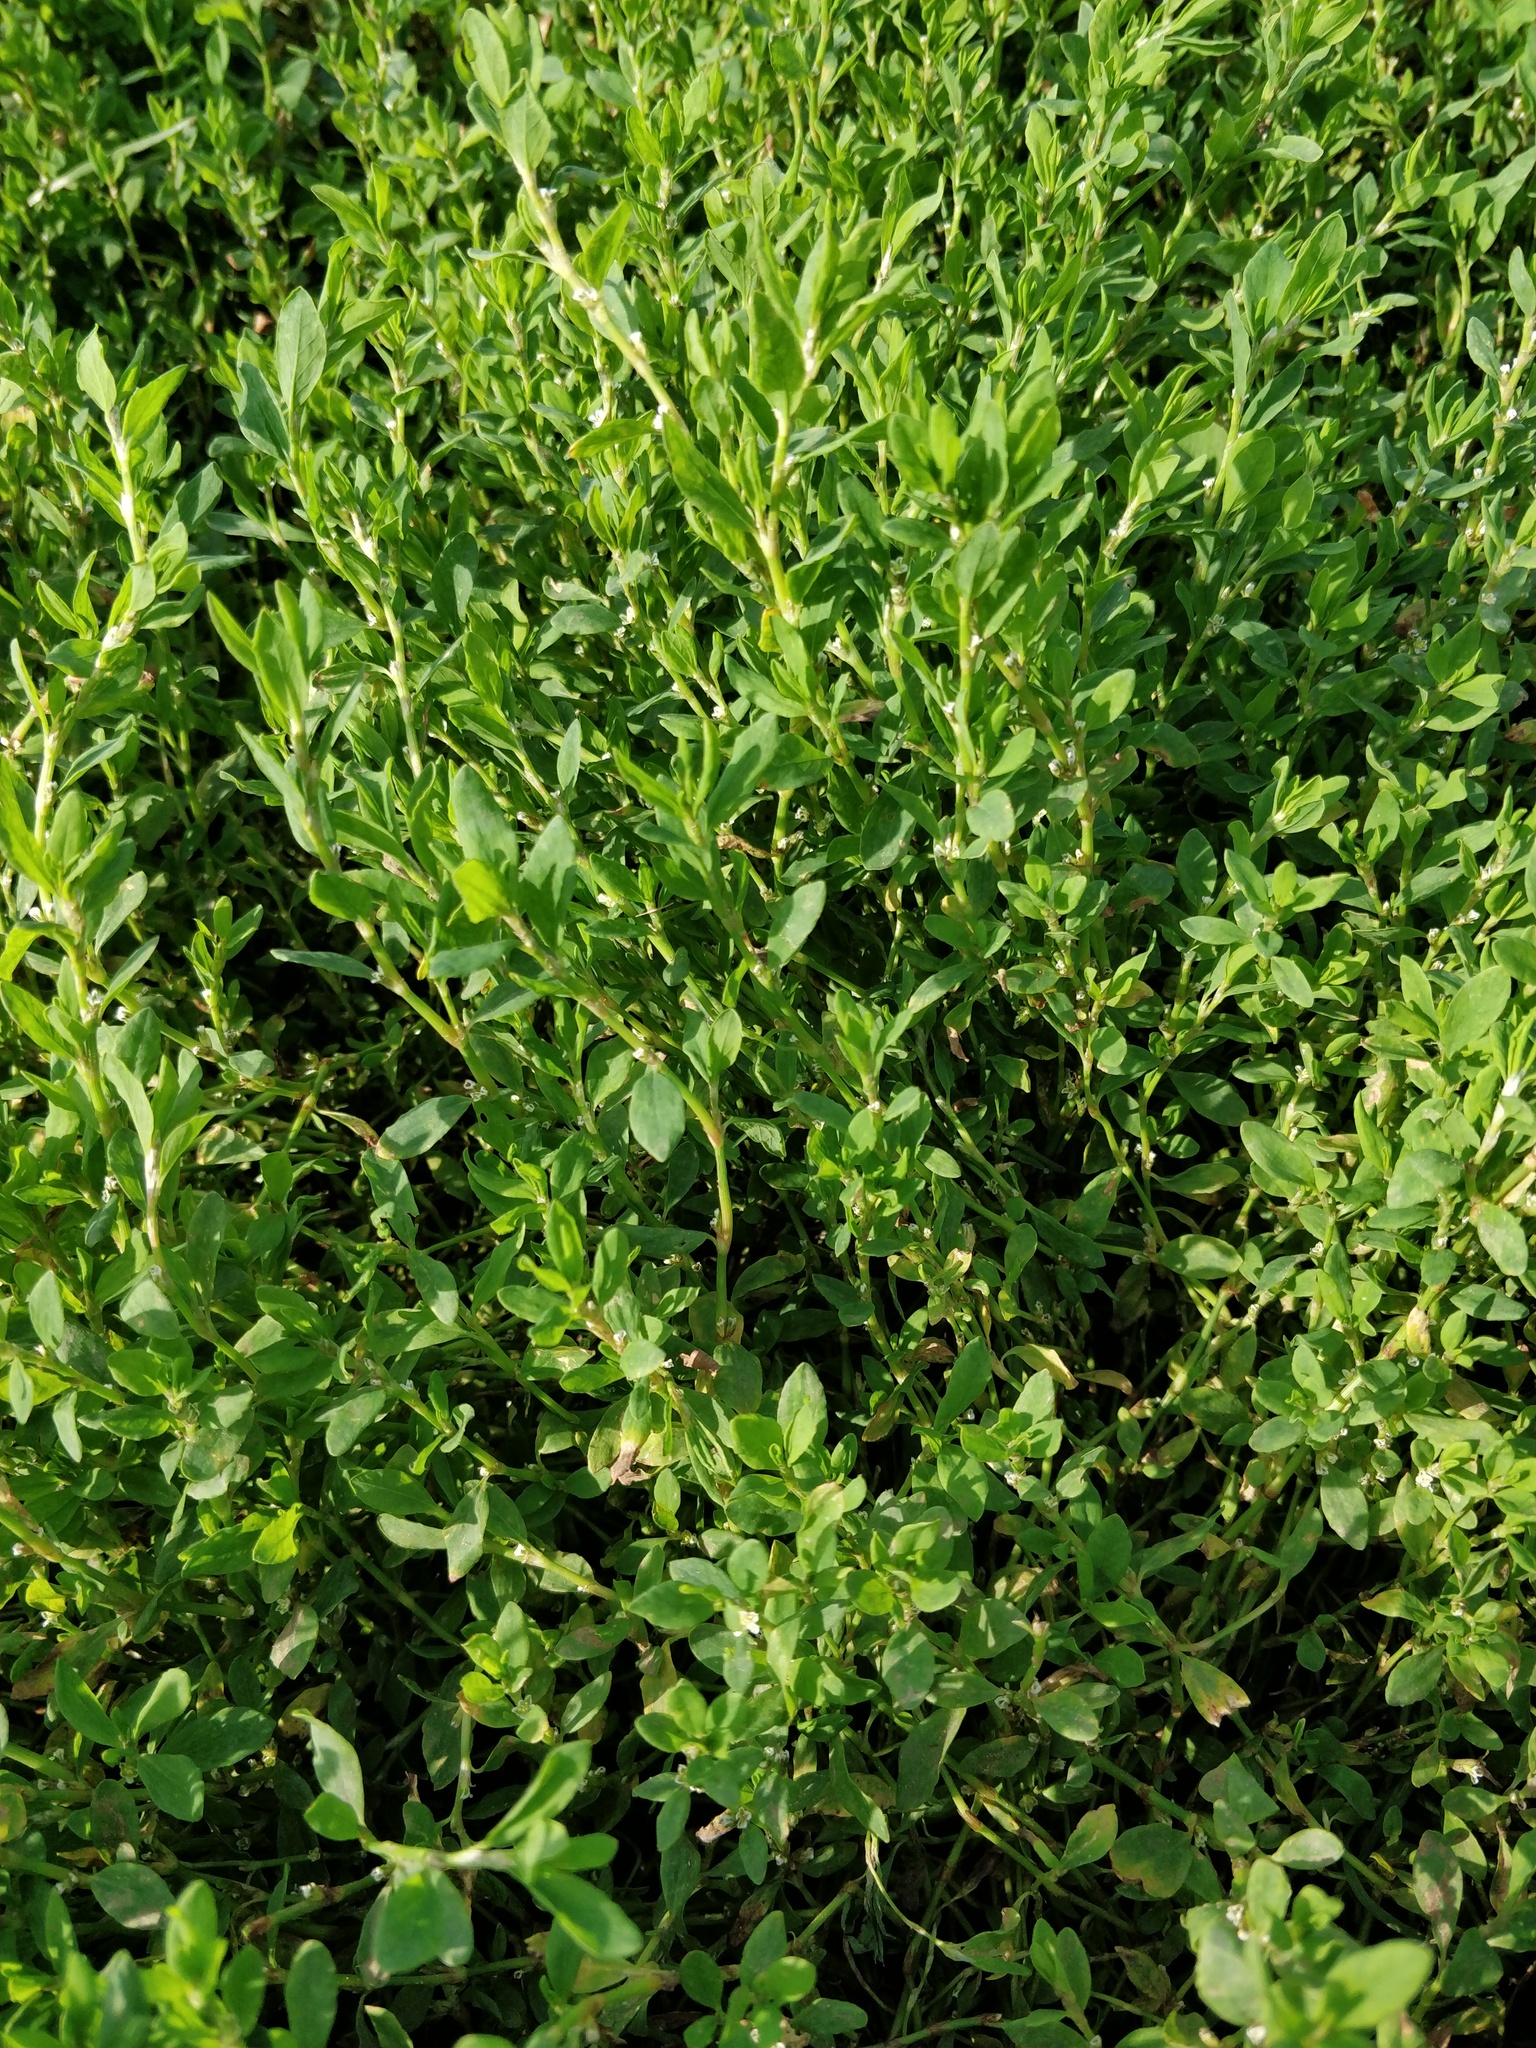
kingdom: Plantae
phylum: Tracheophyta
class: Magnoliopsida
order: Caryophyllales
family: Polygonaceae
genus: Polygonum
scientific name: Polygonum
